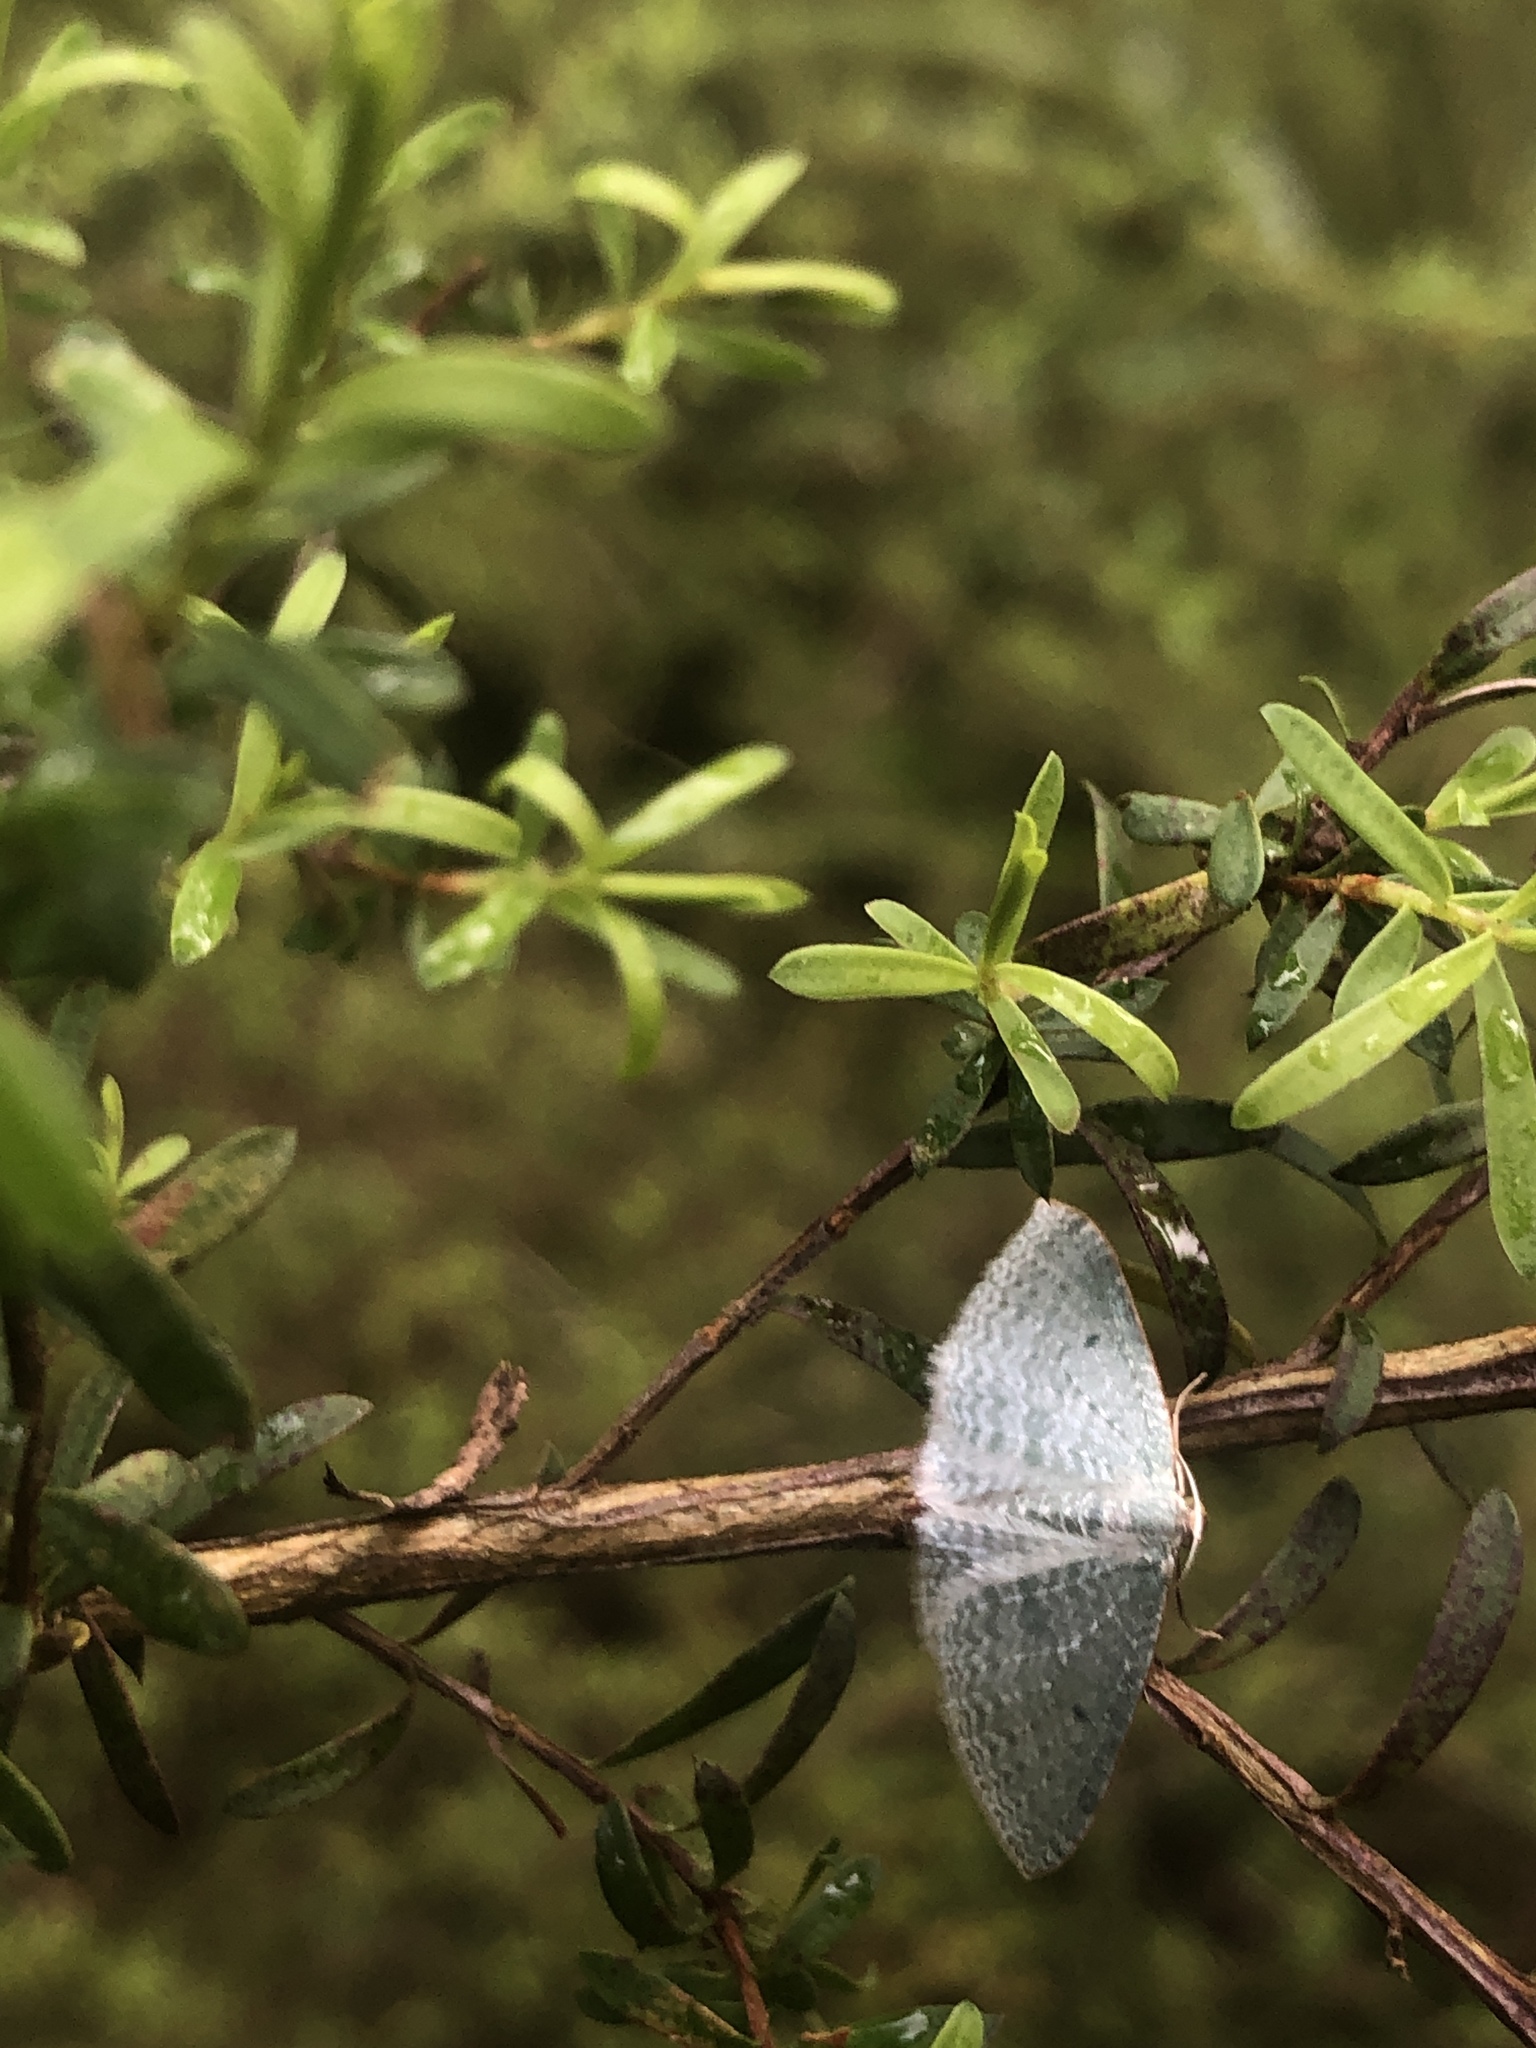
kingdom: Animalia
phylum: Arthropoda
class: Insecta
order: Lepidoptera
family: Geometridae
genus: Poecilasthena
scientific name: Poecilasthena pulchraria
